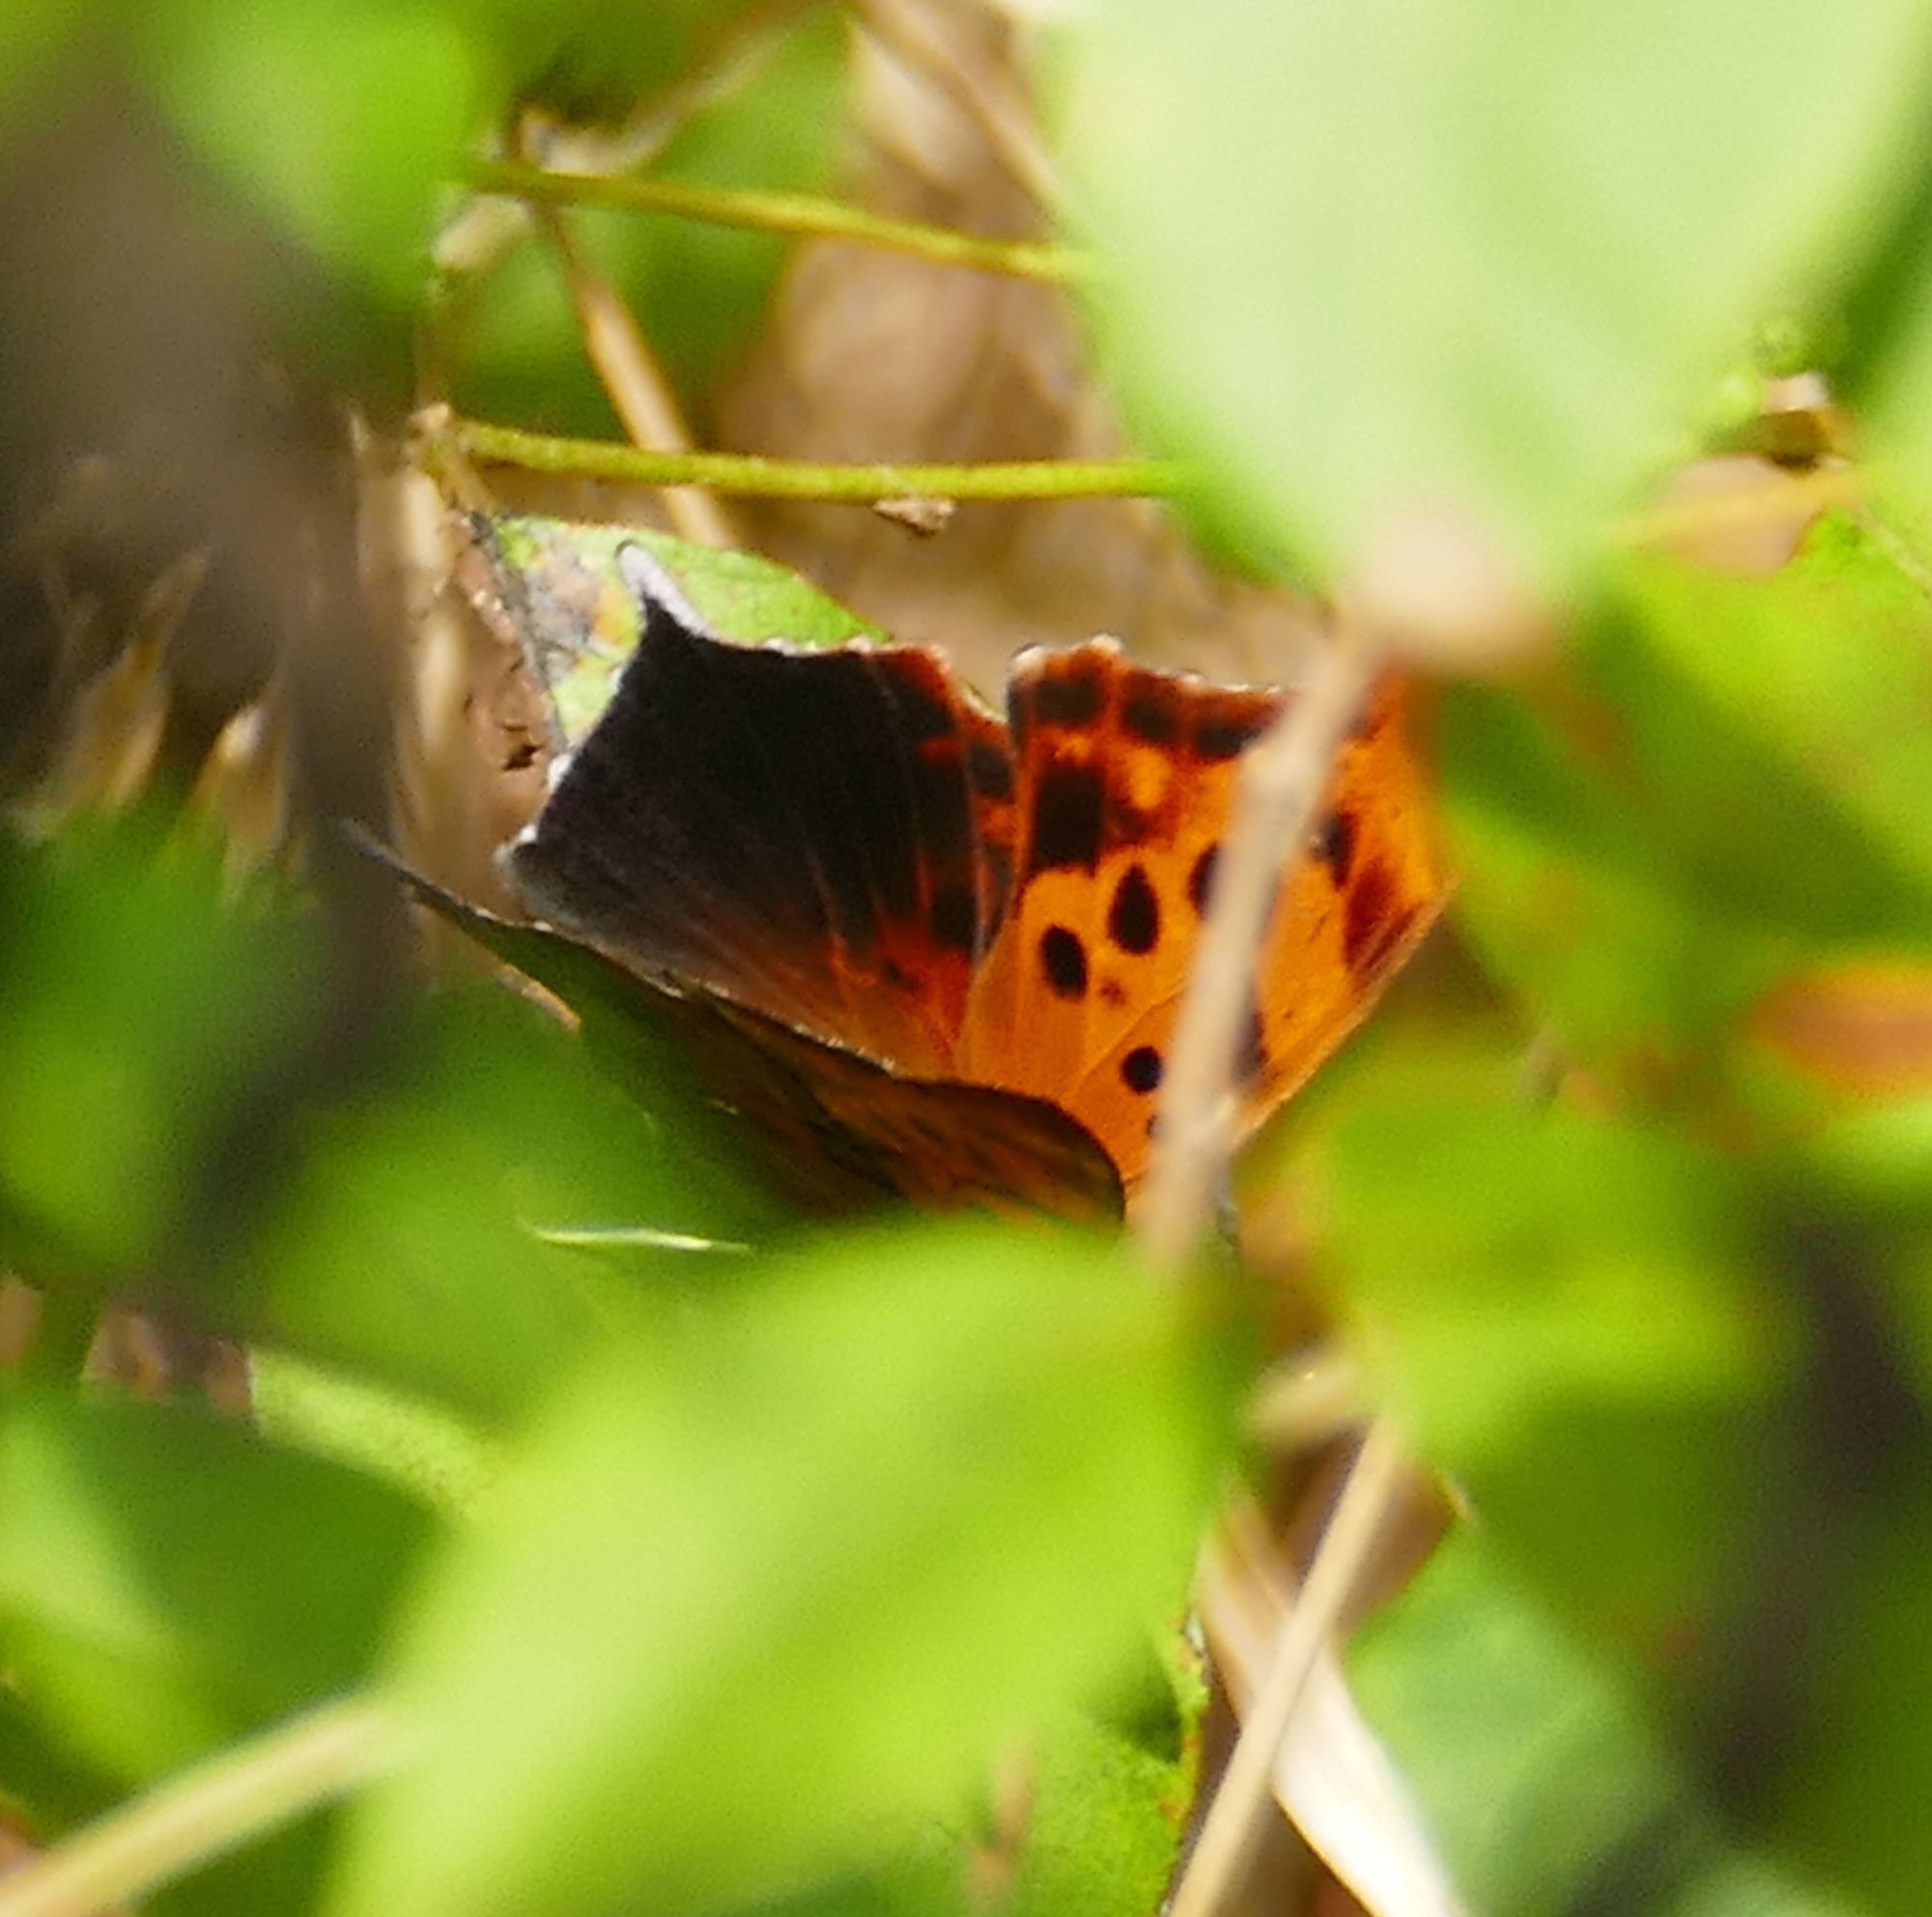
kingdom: Animalia
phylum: Arthropoda
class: Insecta
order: Lepidoptera
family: Nymphalidae
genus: Polygonia
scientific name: Polygonia interrogationis
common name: Question mark
